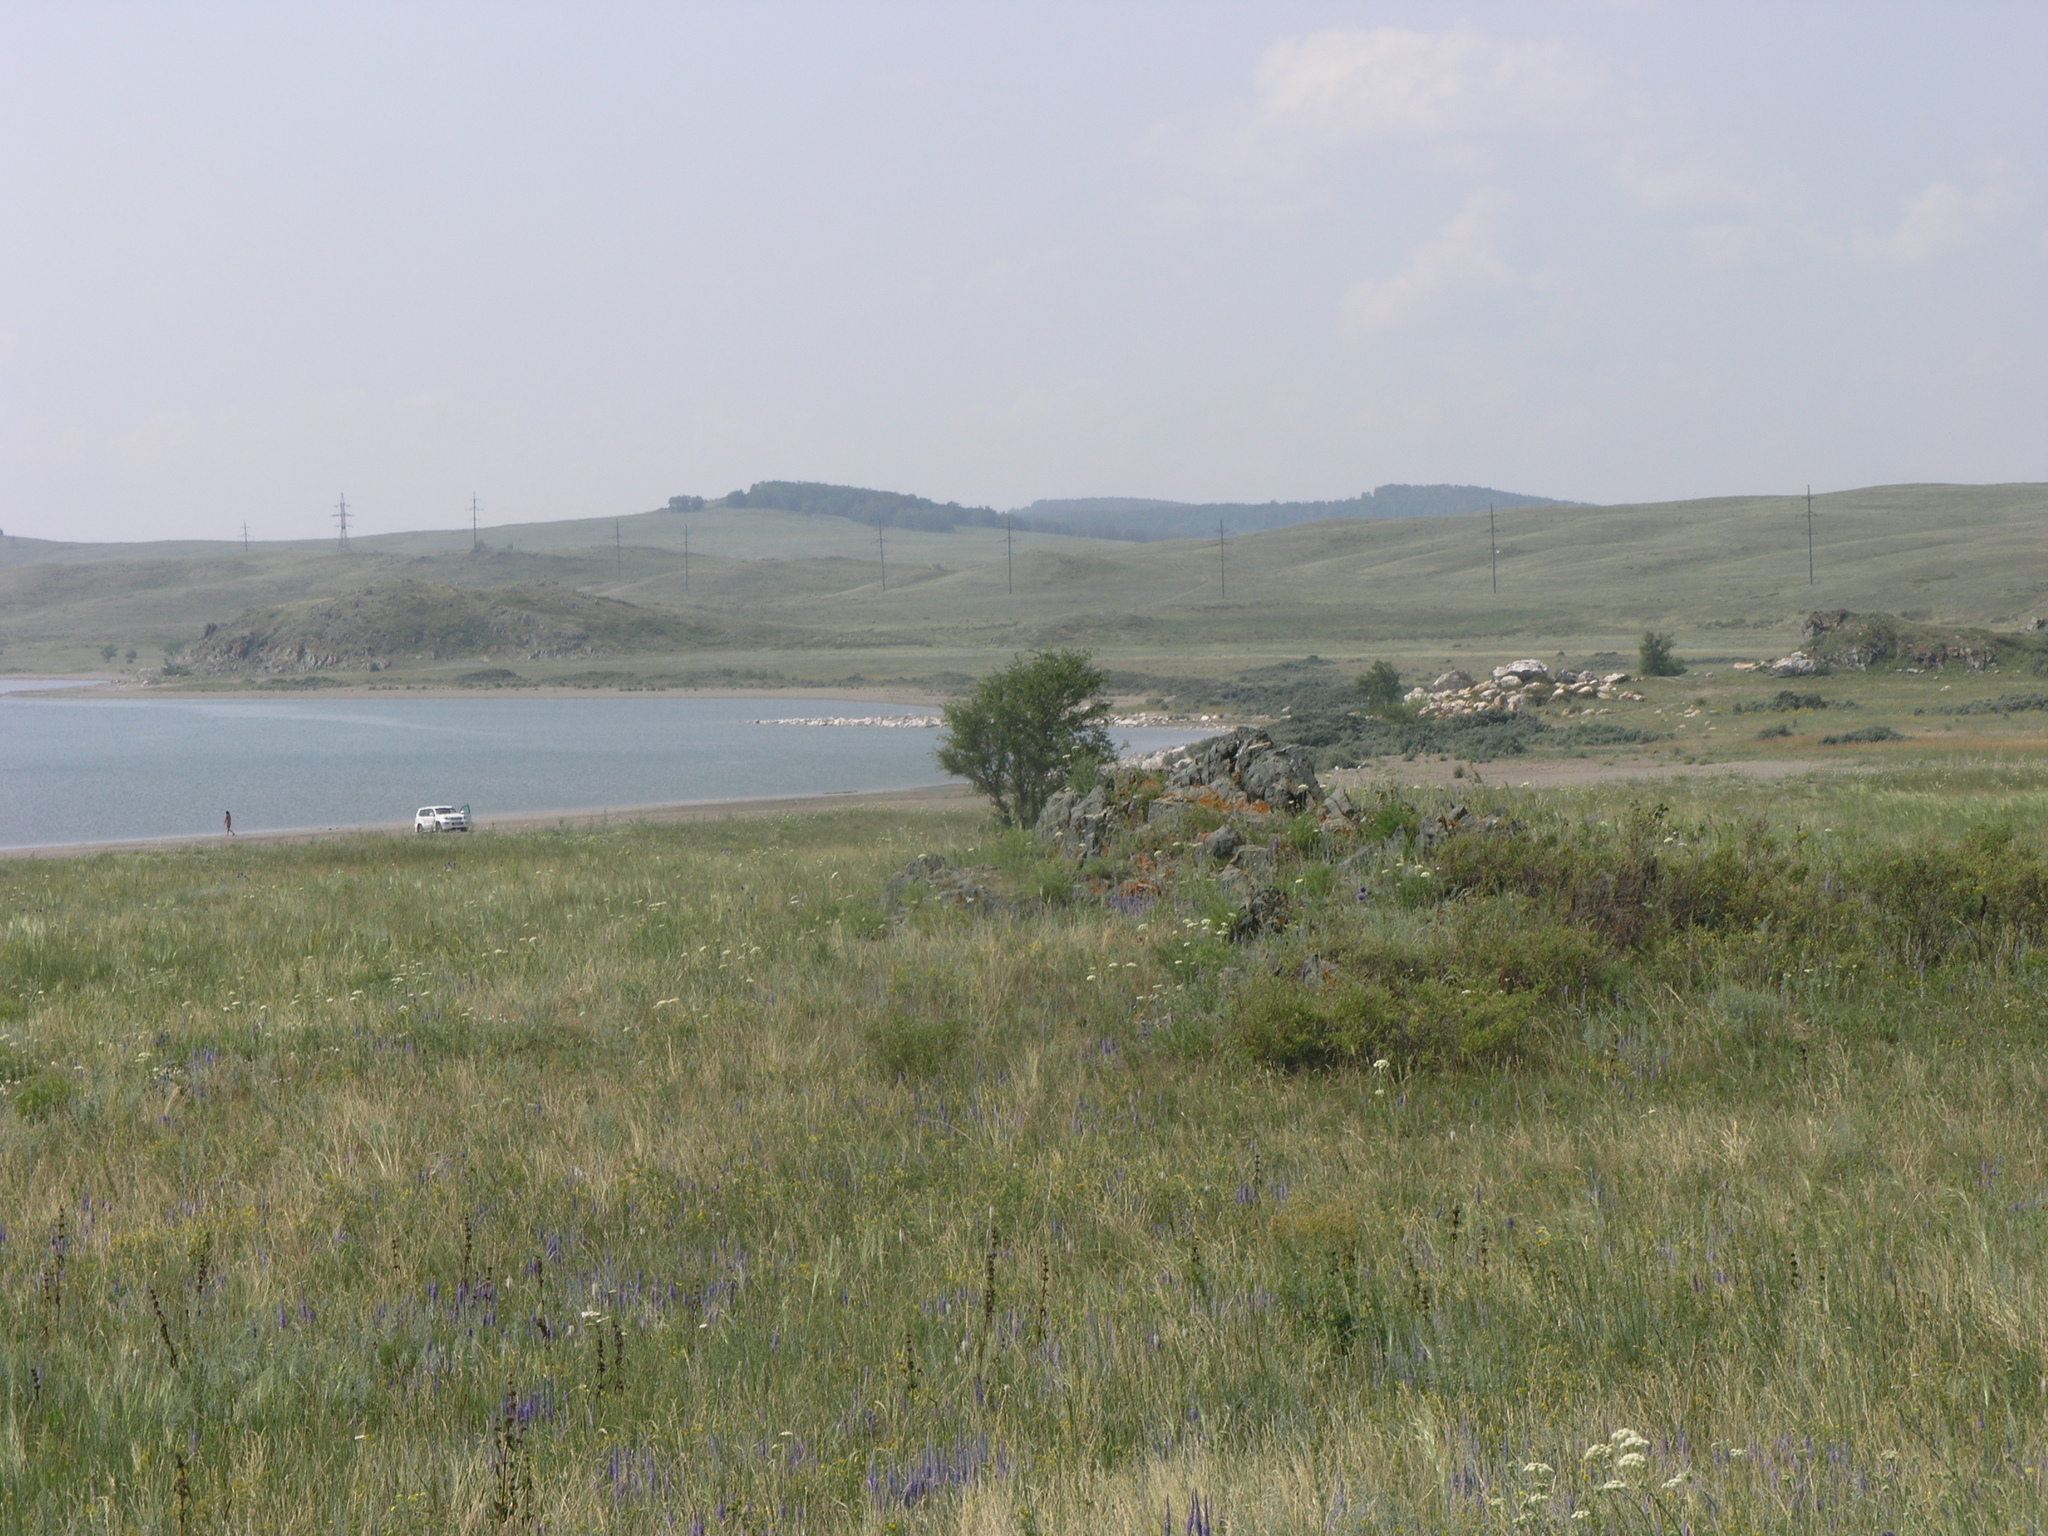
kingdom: Plantae
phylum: Tracheophyta
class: Magnoliopsida
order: Rosales
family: Ulmaceae
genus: Ulmus
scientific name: Ulmus pumila
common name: Siberian elm
